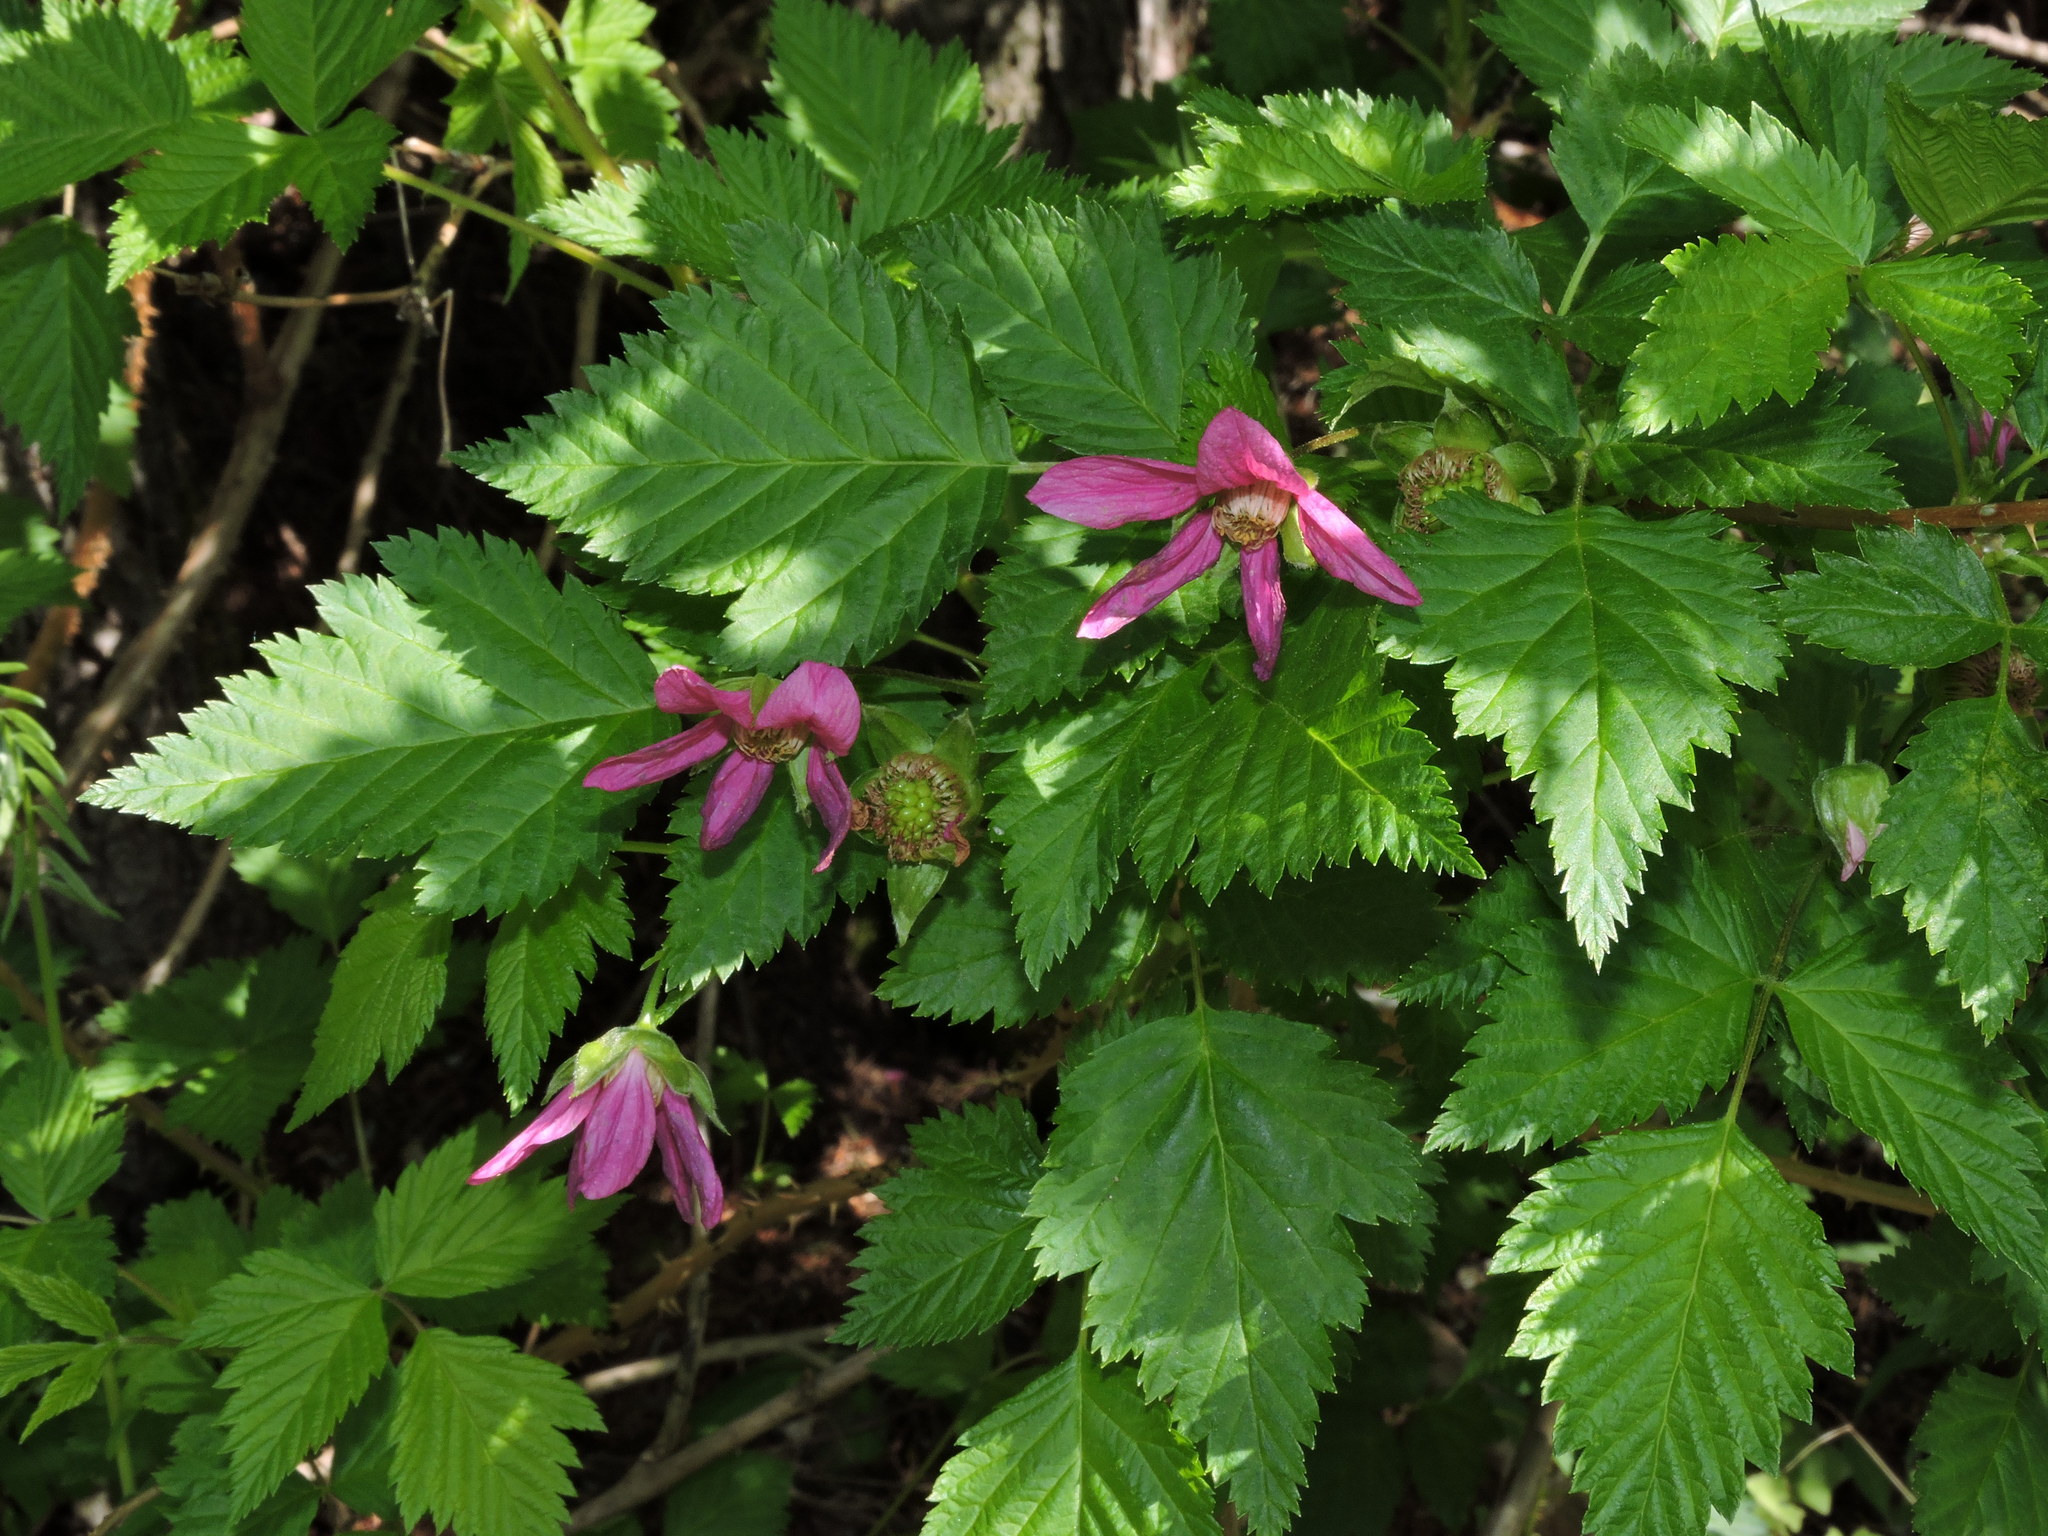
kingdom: Plantae
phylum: Tracheophyta
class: Magnoliopsida
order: Rosales
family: Rosaceae
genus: Rubus
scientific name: Rubus spectabilis
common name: Salmonberry
